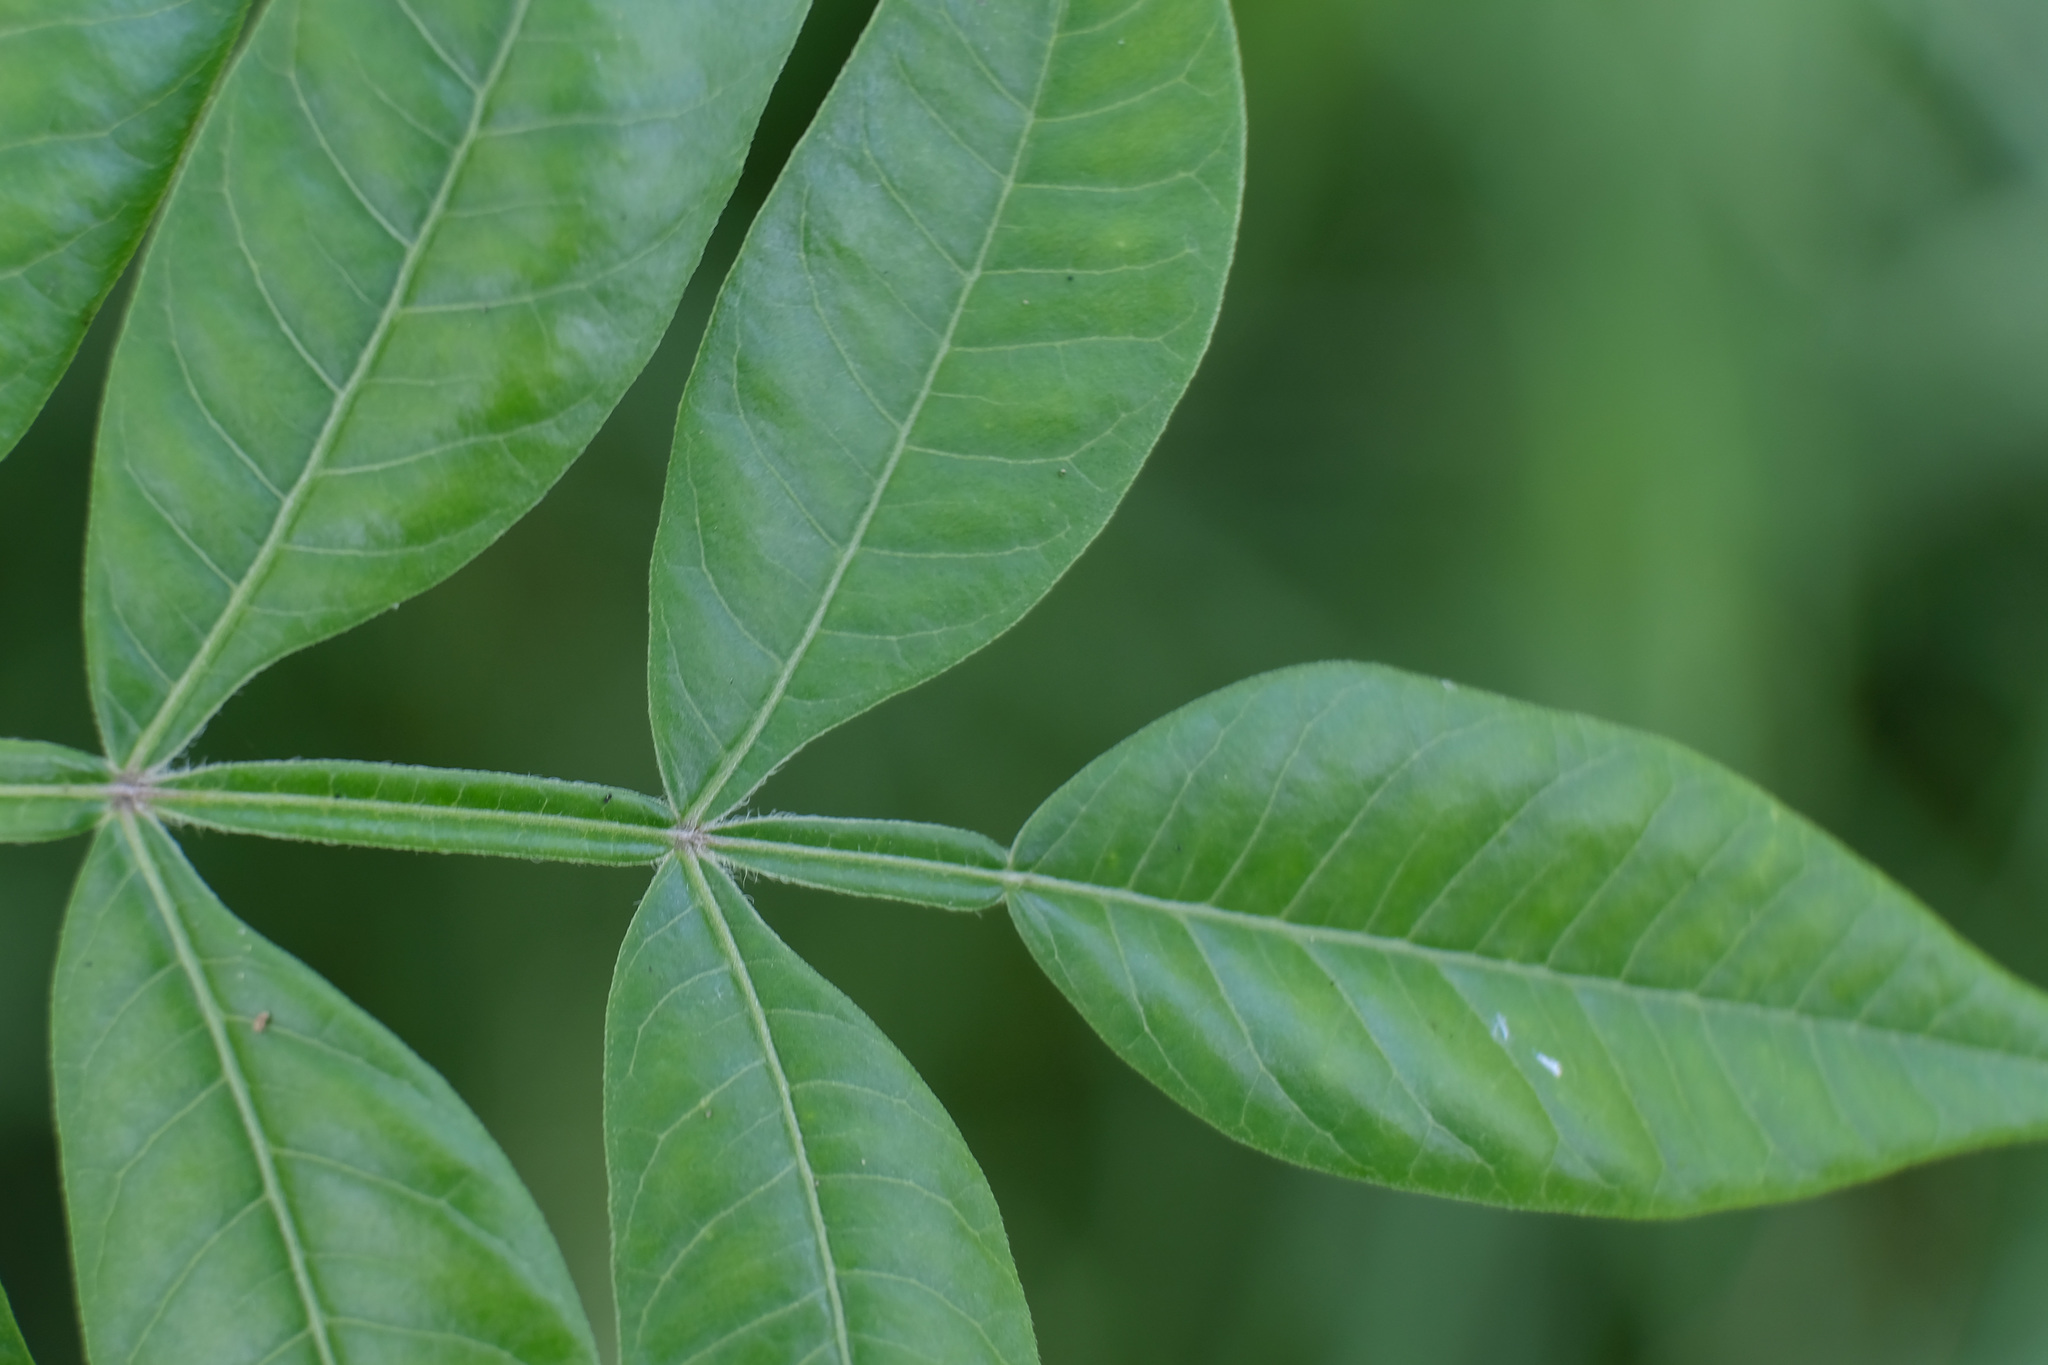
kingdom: Plantae
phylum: Tracheophyta
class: Magnoliopsida
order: Sapindales
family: Anacardiaceae
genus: Rhus
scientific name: Rhus copallina
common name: Shining sumac
